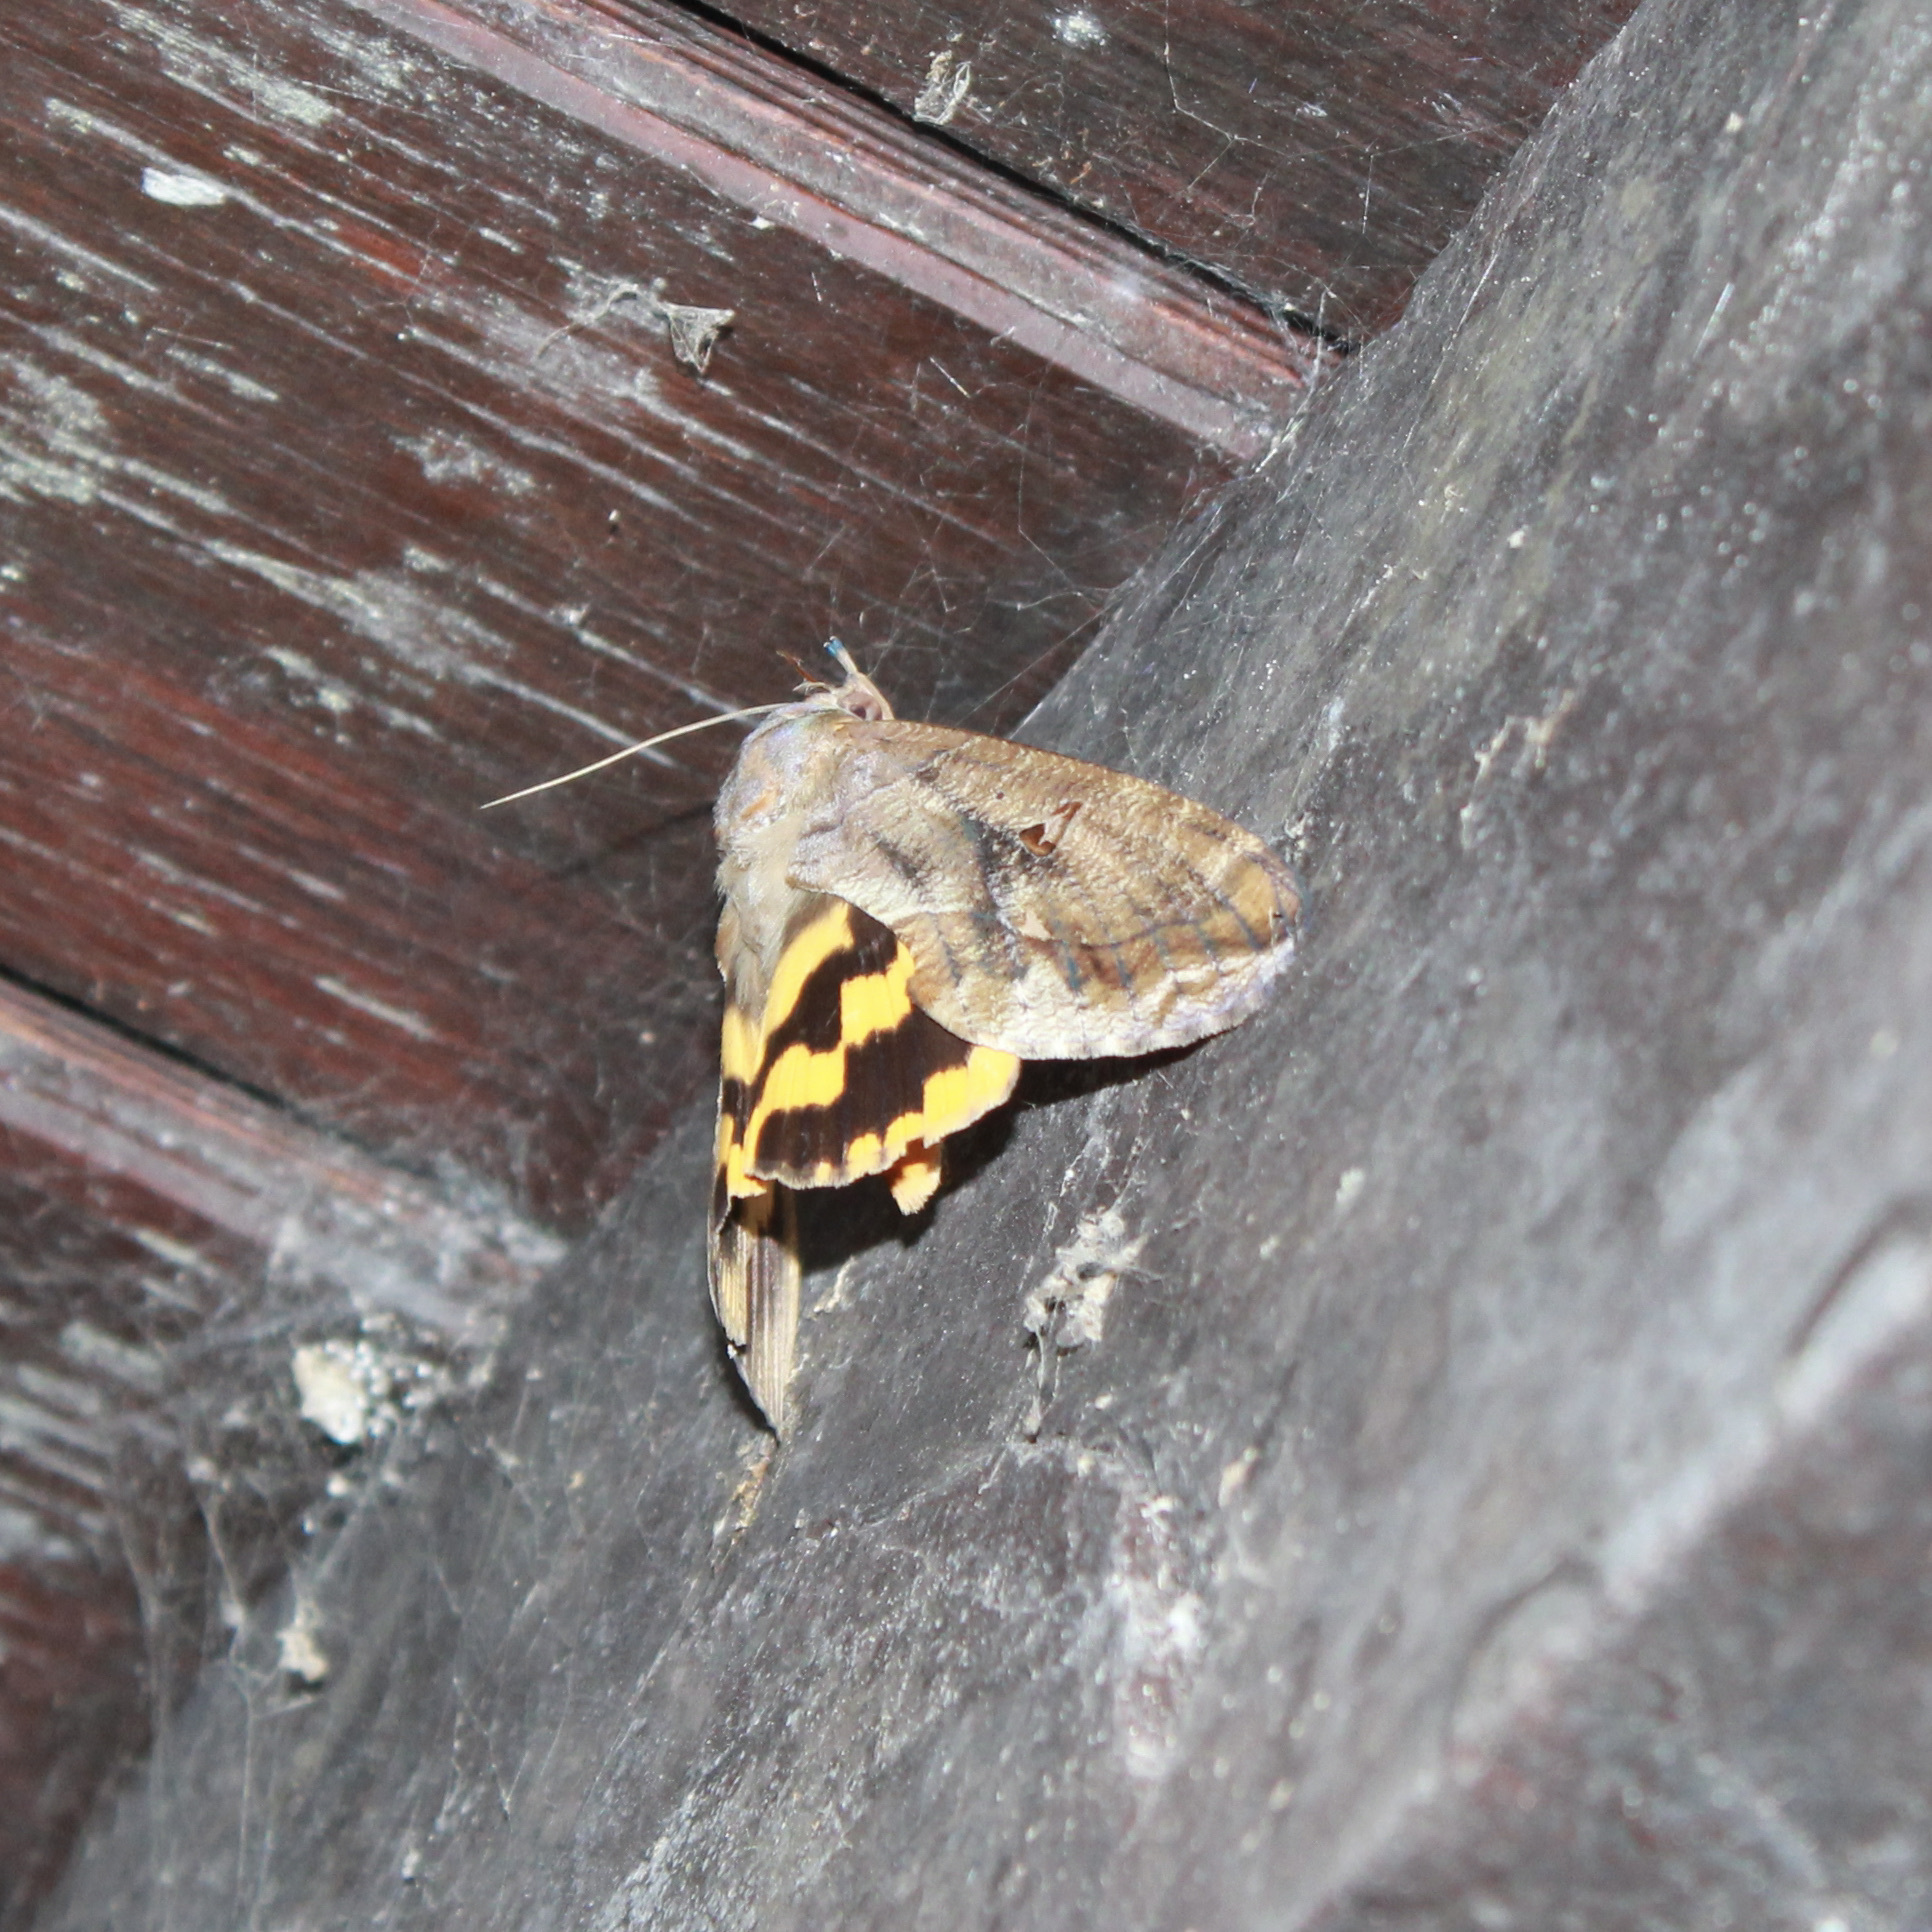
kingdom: Animalia
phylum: Arthropoda
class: Insecta
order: Lepidoptera
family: Erebidae
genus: Eudocima
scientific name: Eudocima procus
